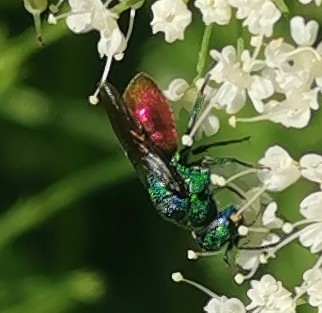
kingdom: Animalia
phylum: Arthropoda
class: Insecta
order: Hymenoptera
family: Chrysididae
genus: Holopyga
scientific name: Holopyga fastuosa
